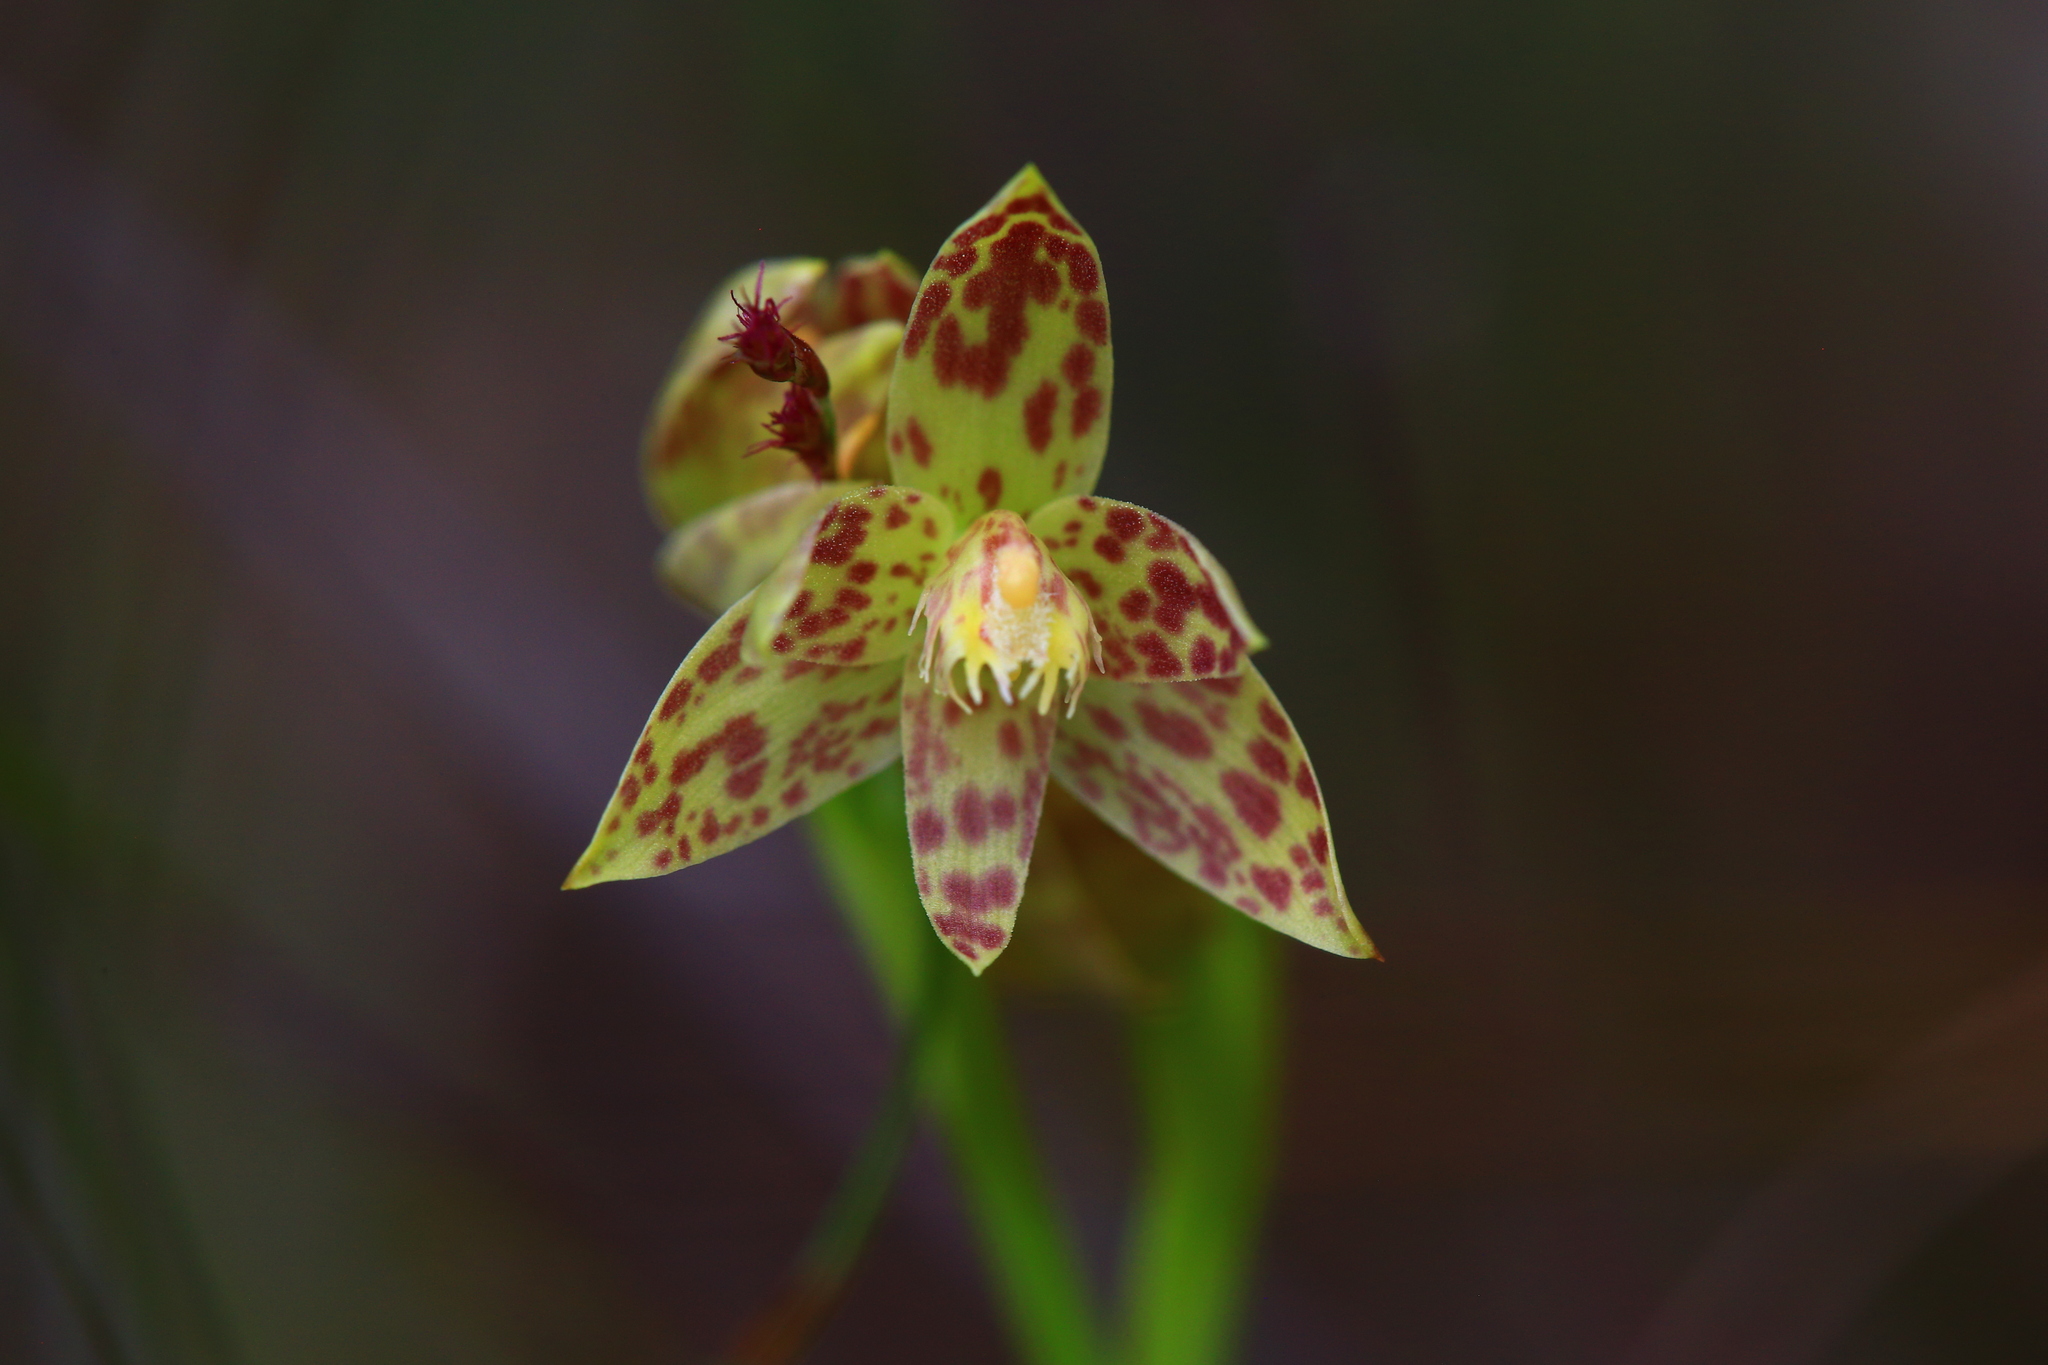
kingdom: Plantae
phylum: Tracheophyta
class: Liliopsida
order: Asparagales
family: Orchidaceae
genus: Thelymitra
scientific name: Thelymitra benthamiana
